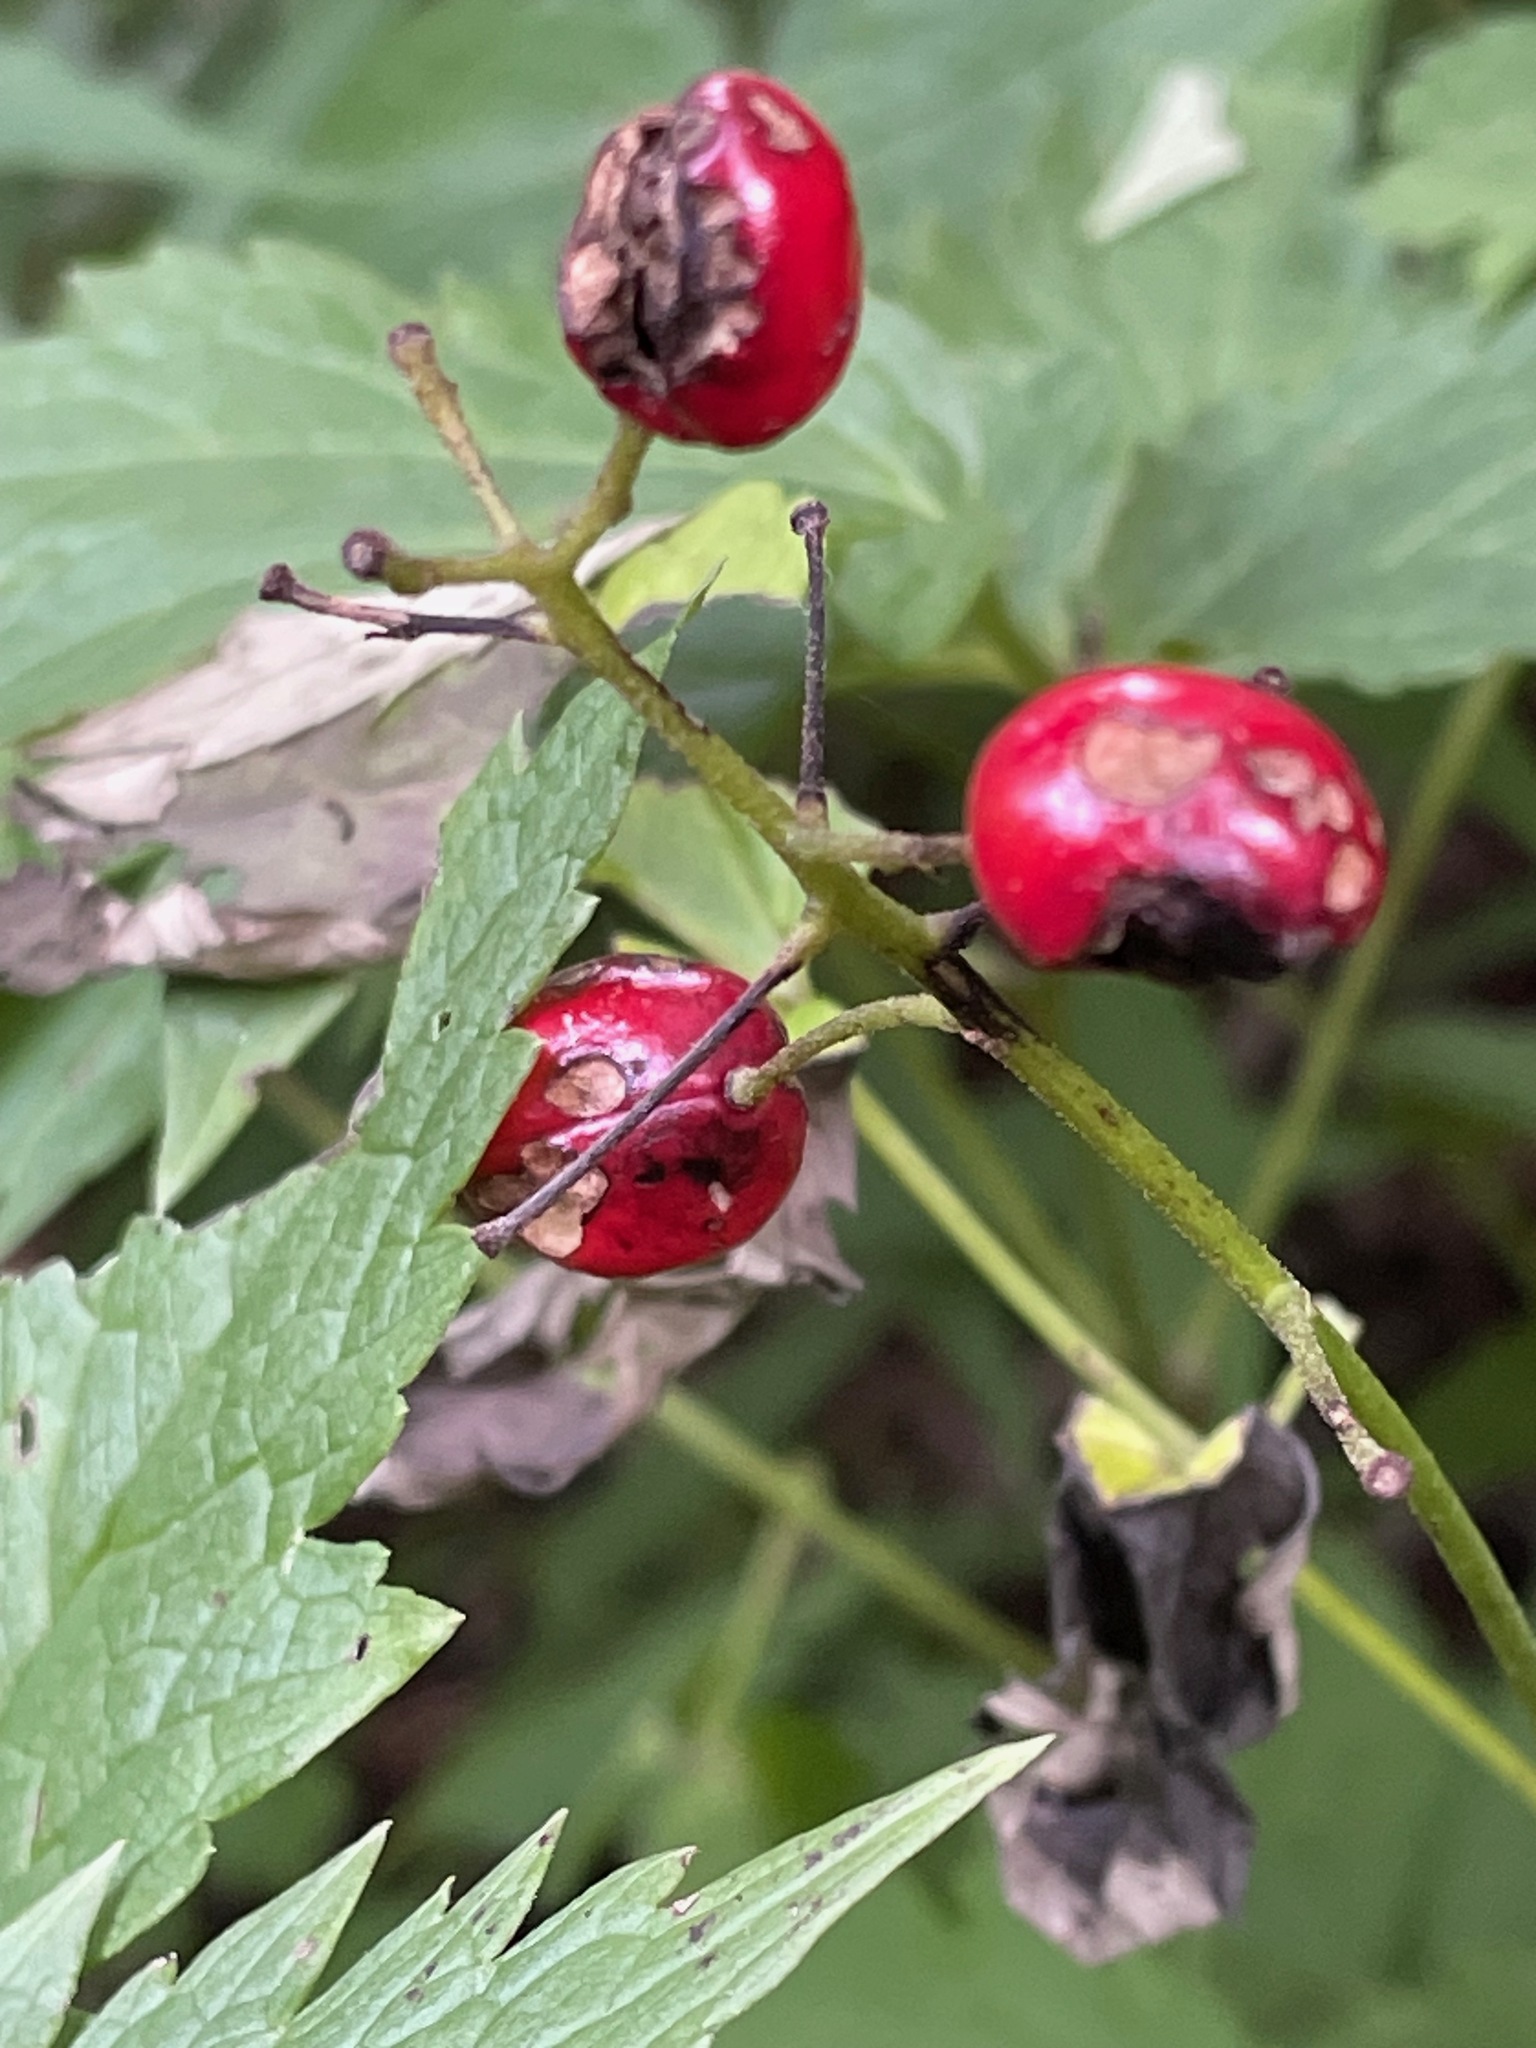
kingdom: Plantae
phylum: Tracheophyta
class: Magnoliopsida
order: Ranunculales
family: Ranunculaceae
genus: Actaea
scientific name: Actaea rubra
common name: Red baneberry
